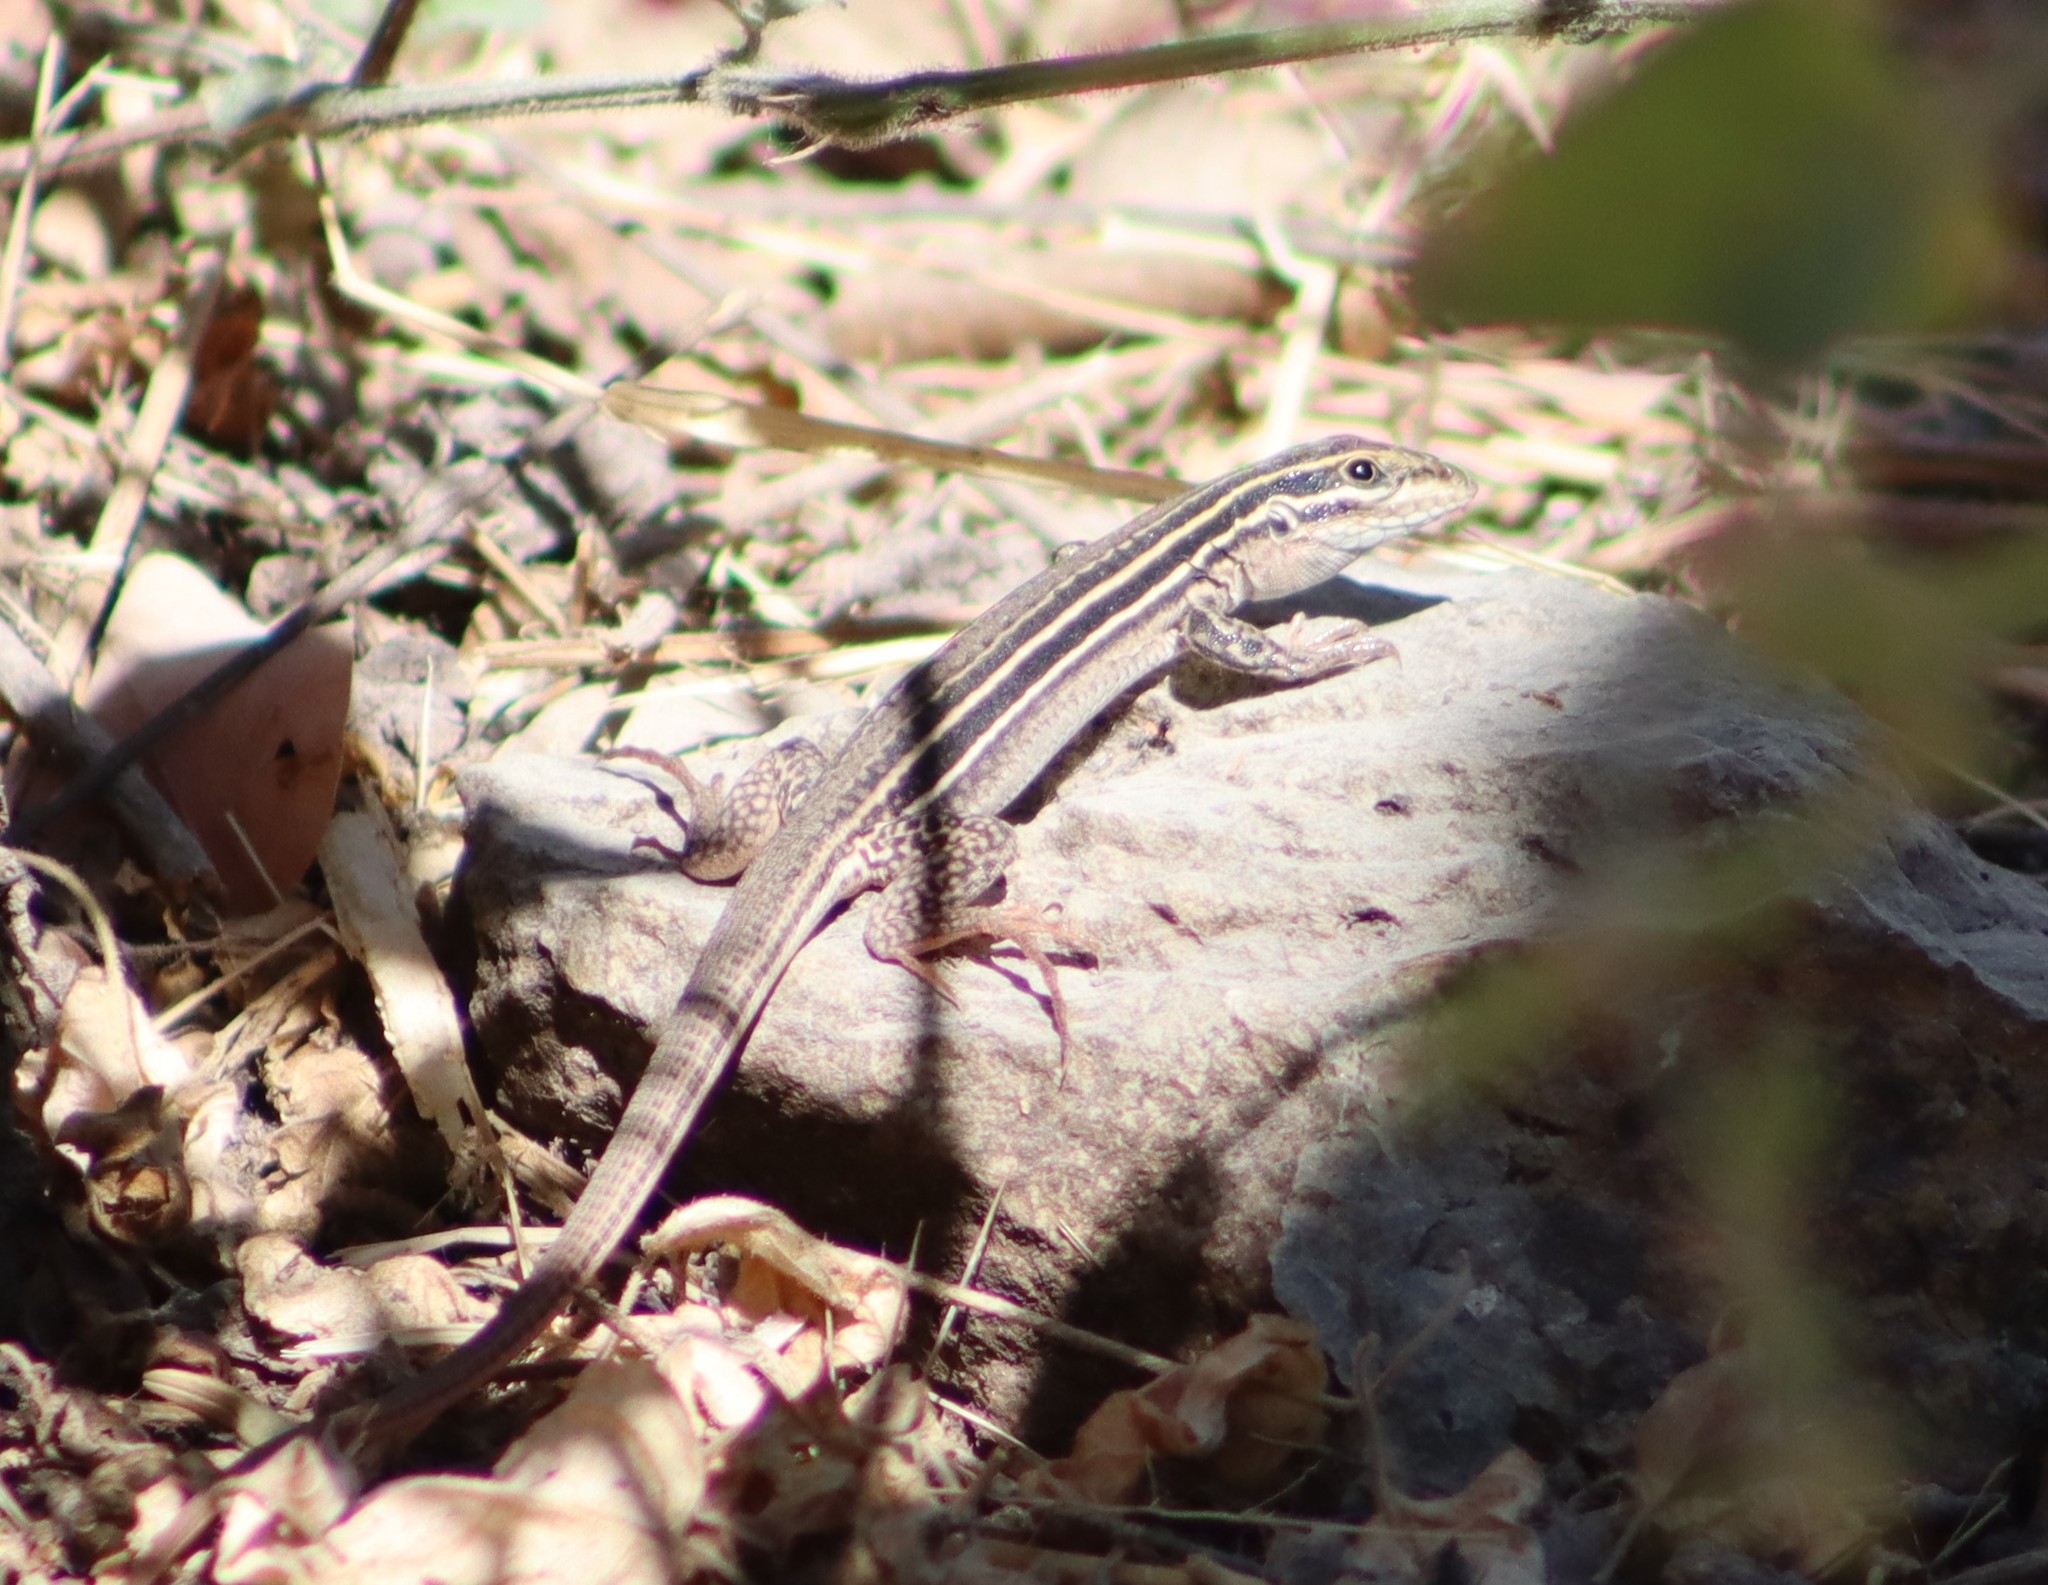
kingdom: Animalia
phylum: Chordata
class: Squamata
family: Teiidae
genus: Aspidoscelis
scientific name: Aspidoscelis costatus
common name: Western mexico whiptail
